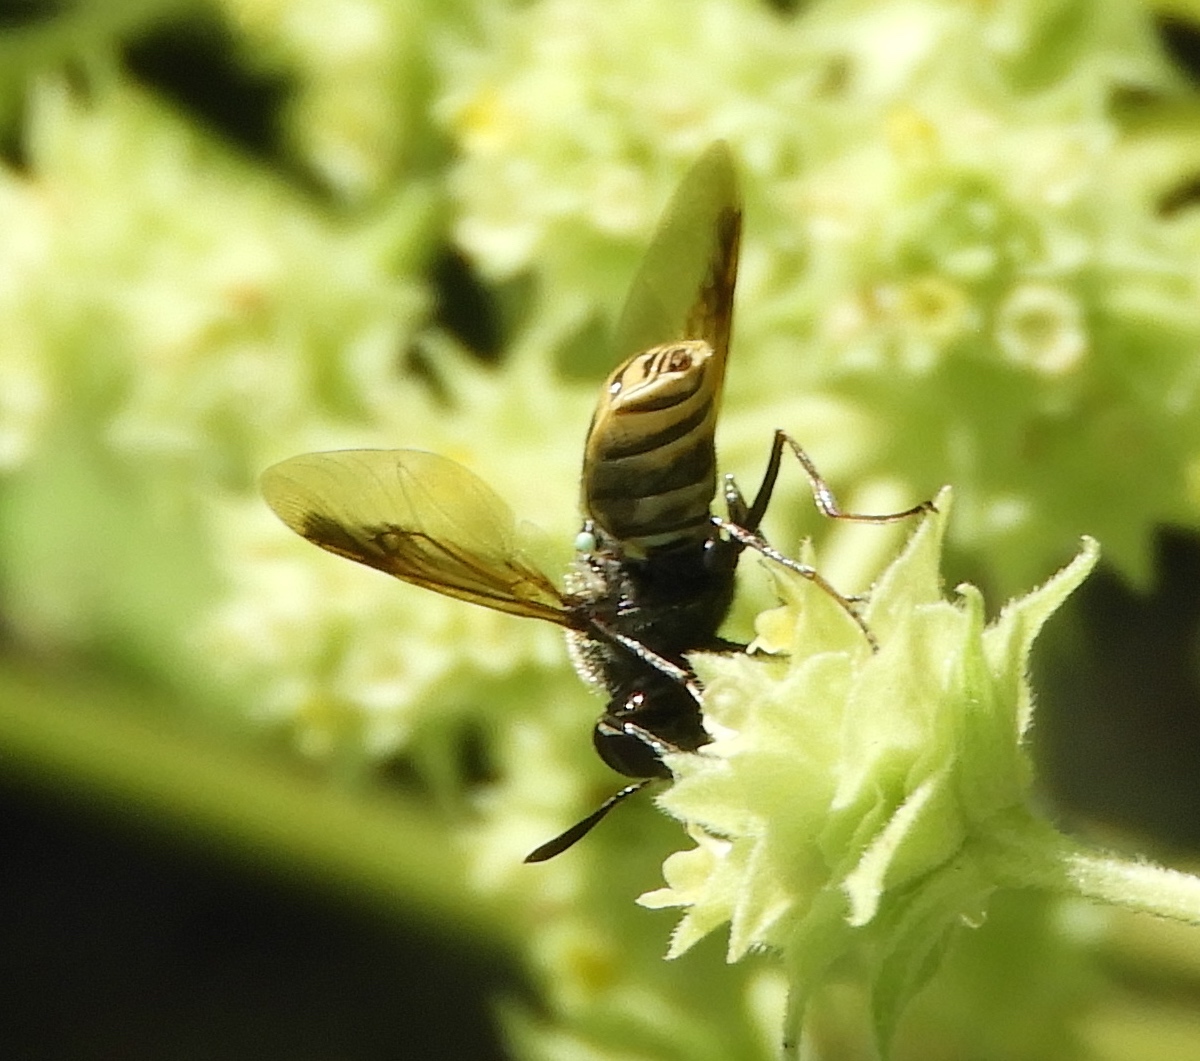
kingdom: Animalia
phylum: Arthropoda
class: Insecta
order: Diptera
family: Stratiomyidae
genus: Hoplitimyia
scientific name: Hoplitimyia
